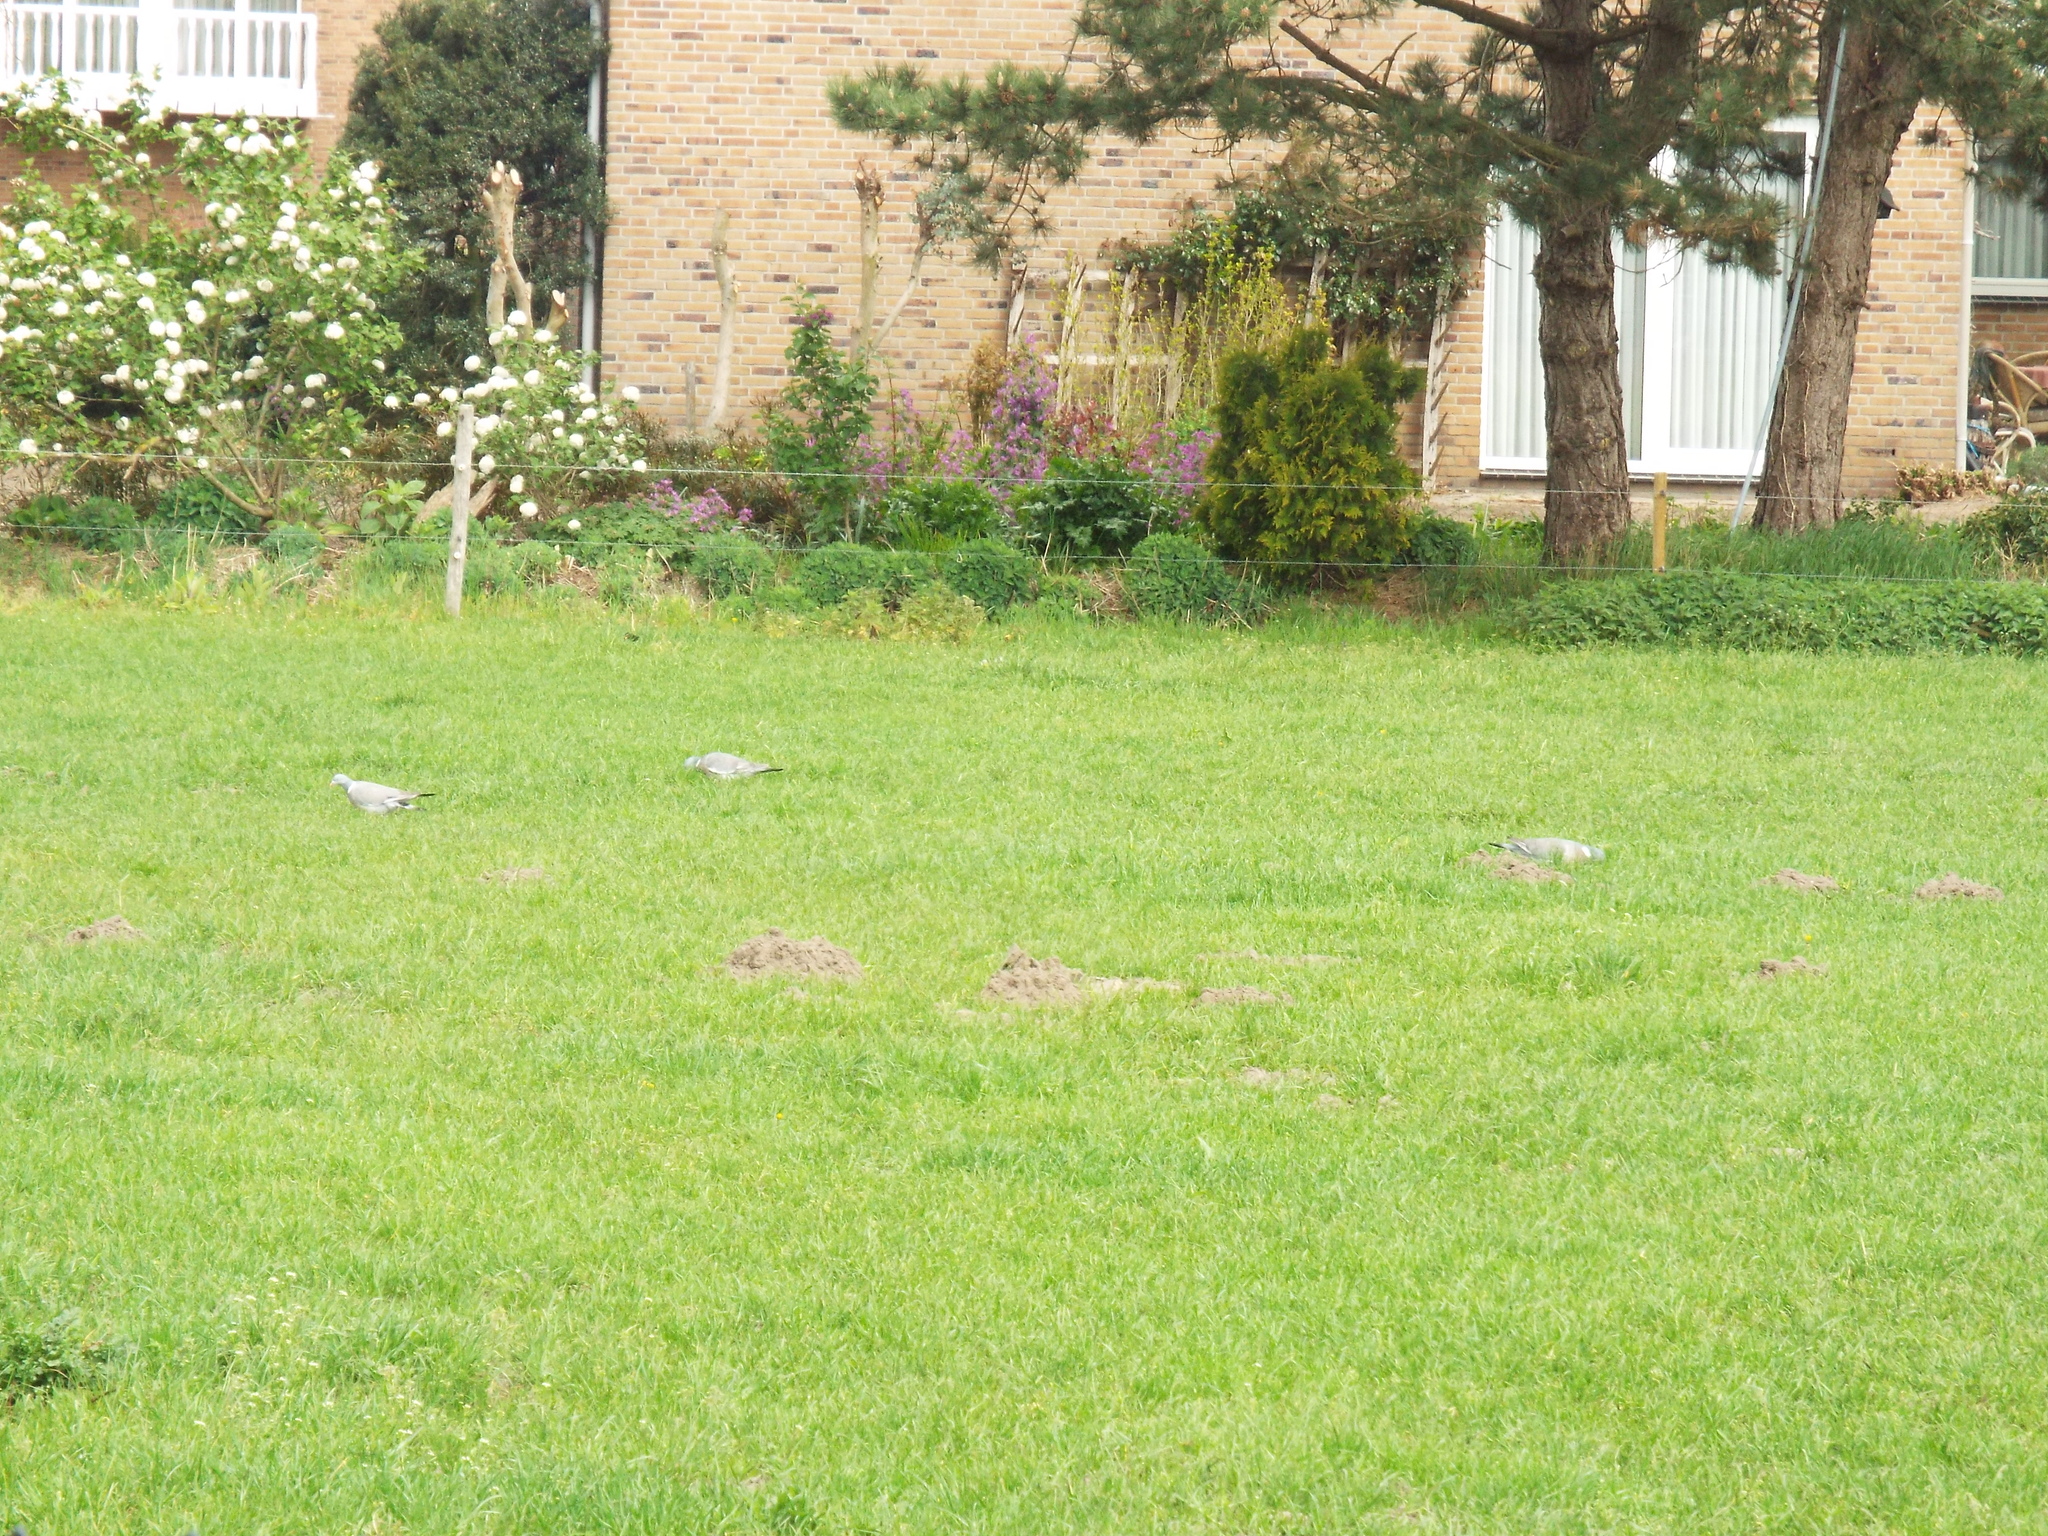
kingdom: Animalia
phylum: Chordata
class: Aves
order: Columbiformes
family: Columbidae
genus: Columba
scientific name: Columba palumbus
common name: Common wood pigeon
